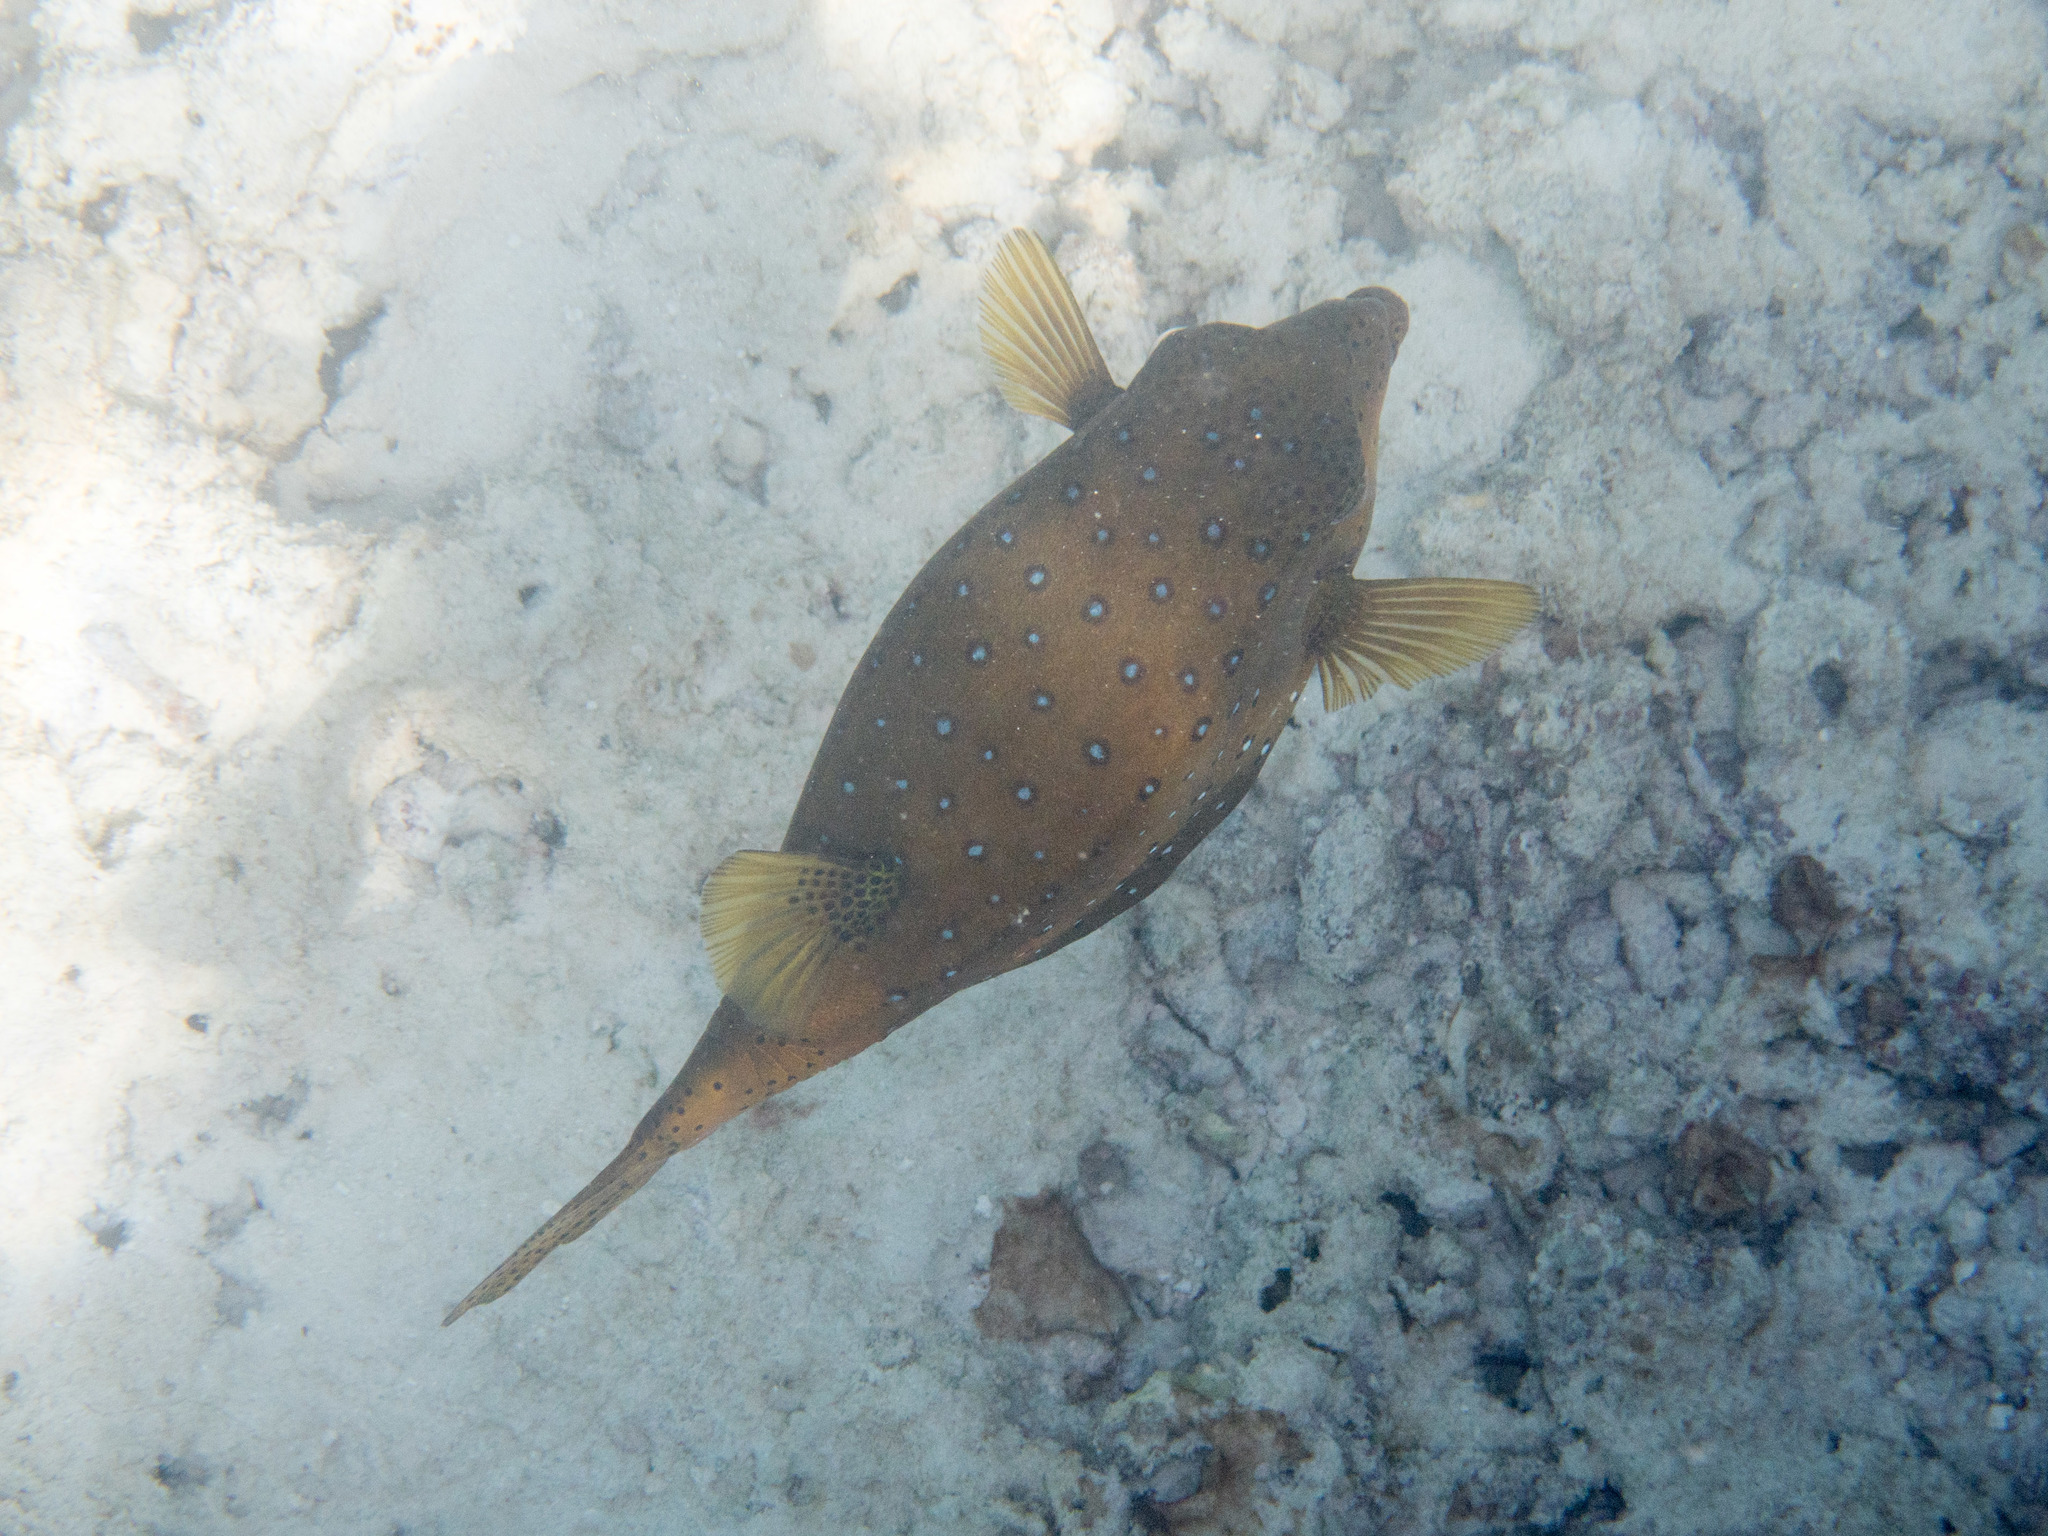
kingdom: Animalia
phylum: Chordata
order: Tetraodontiformes
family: Ostraciidae
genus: Ostracion
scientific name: Ostracion cubicus
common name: Cube trunkfish
